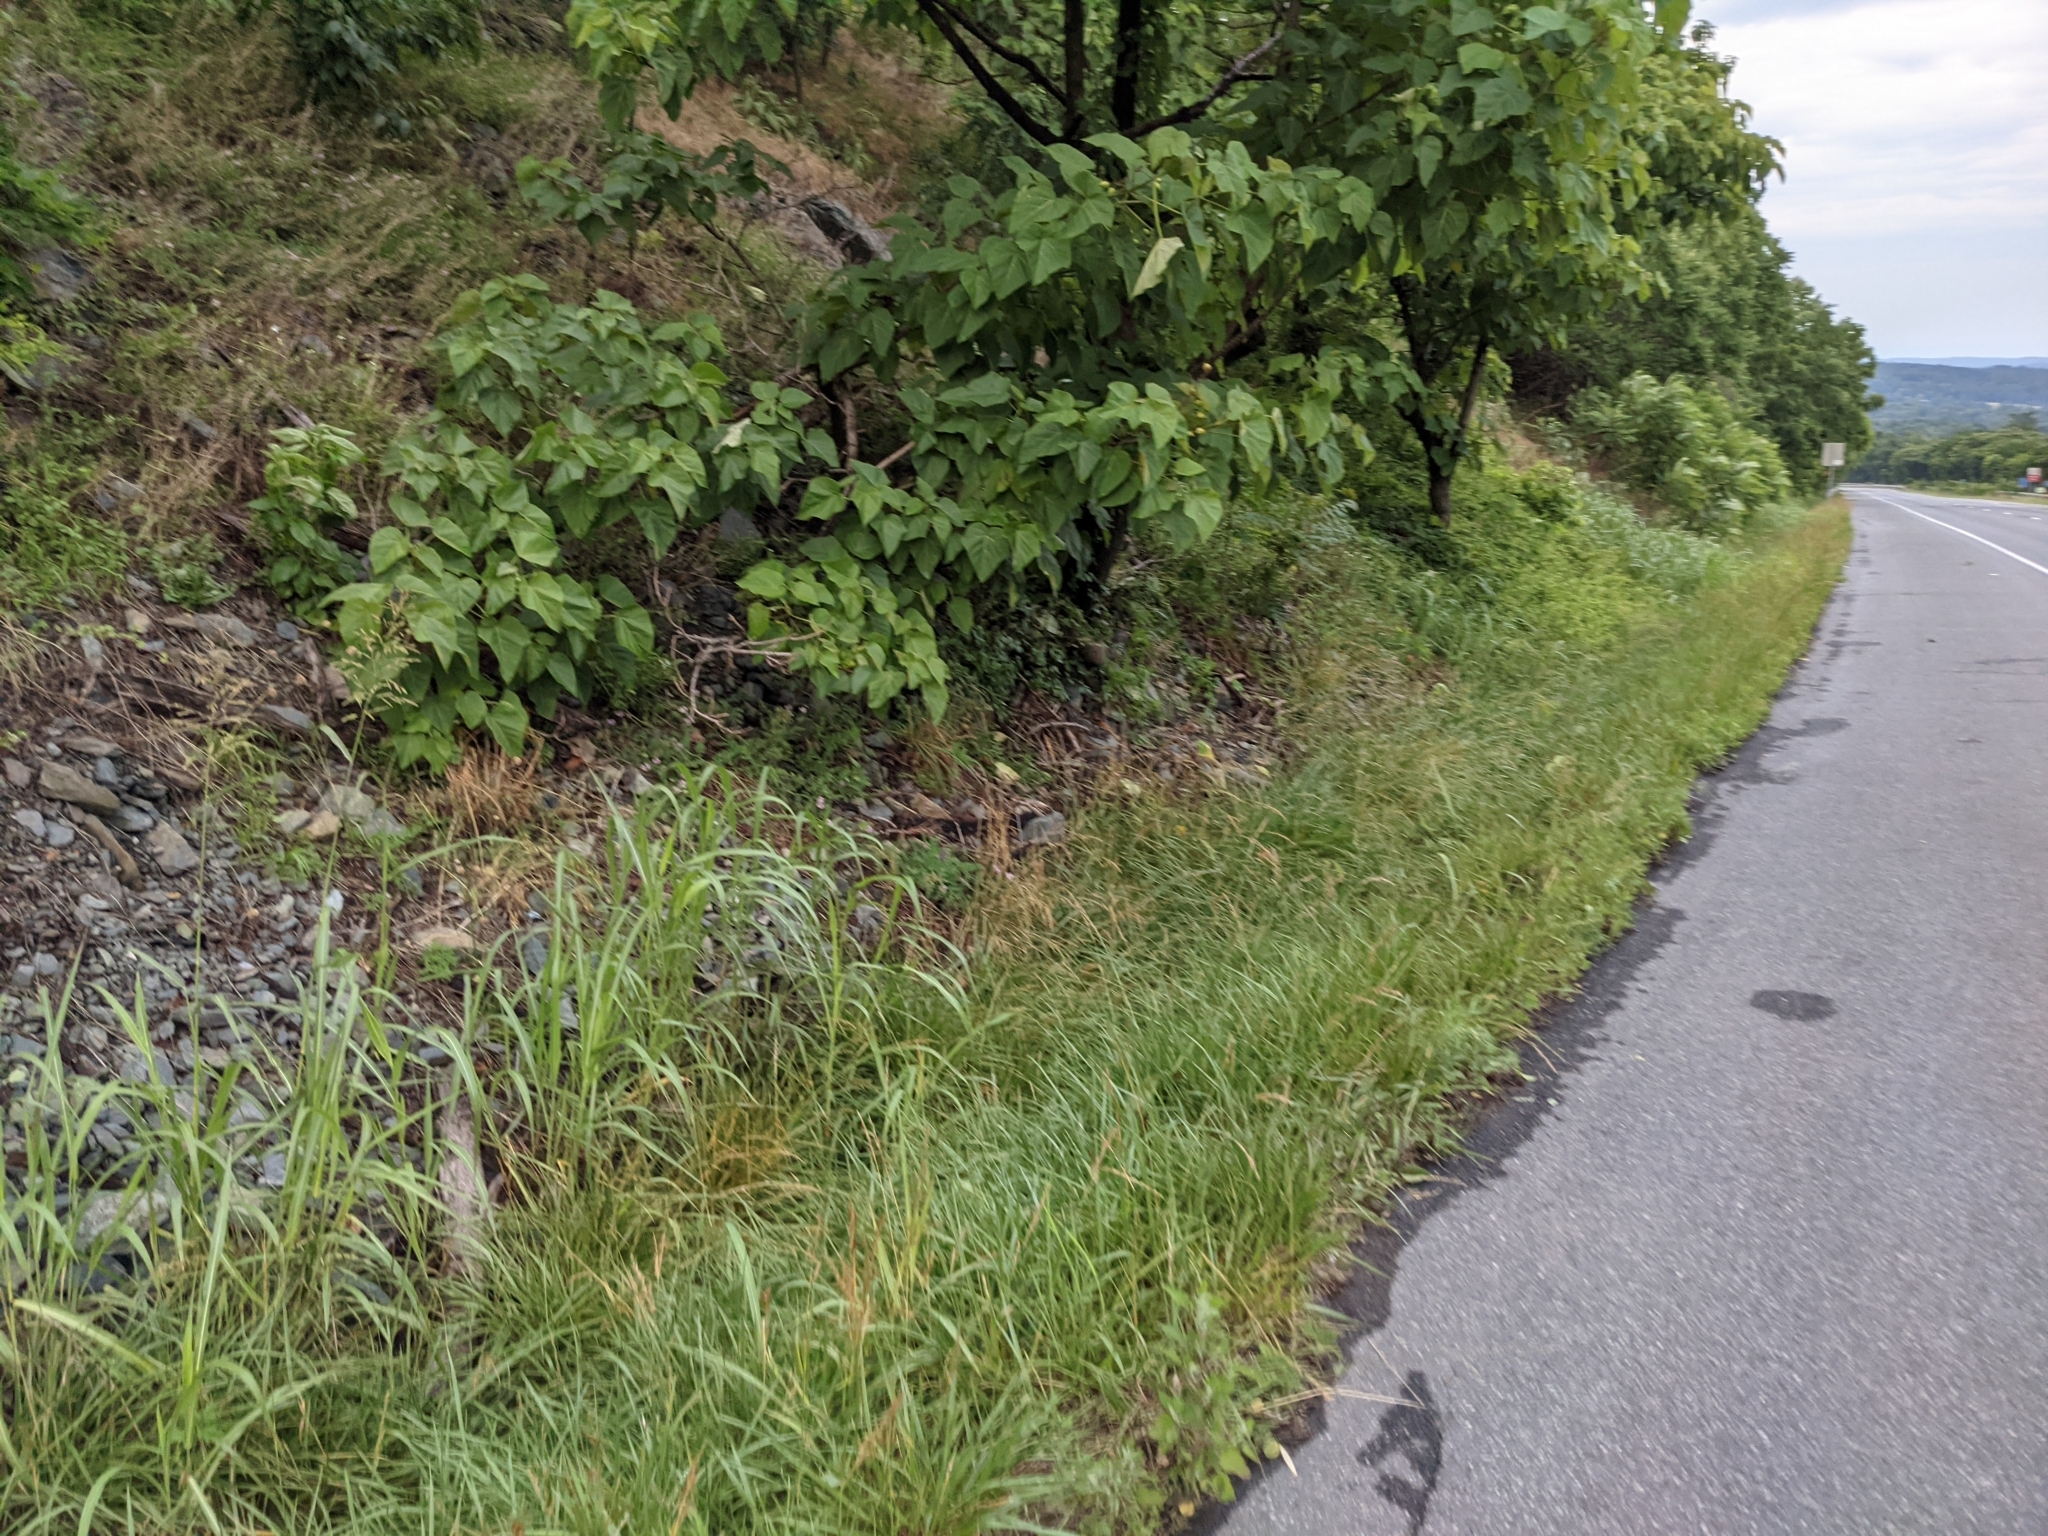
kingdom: Animalia
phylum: Chordata
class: Mammalia
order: Rodentia
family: Sciuridae
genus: Marmota
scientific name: Marmota monax
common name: Groundhog
